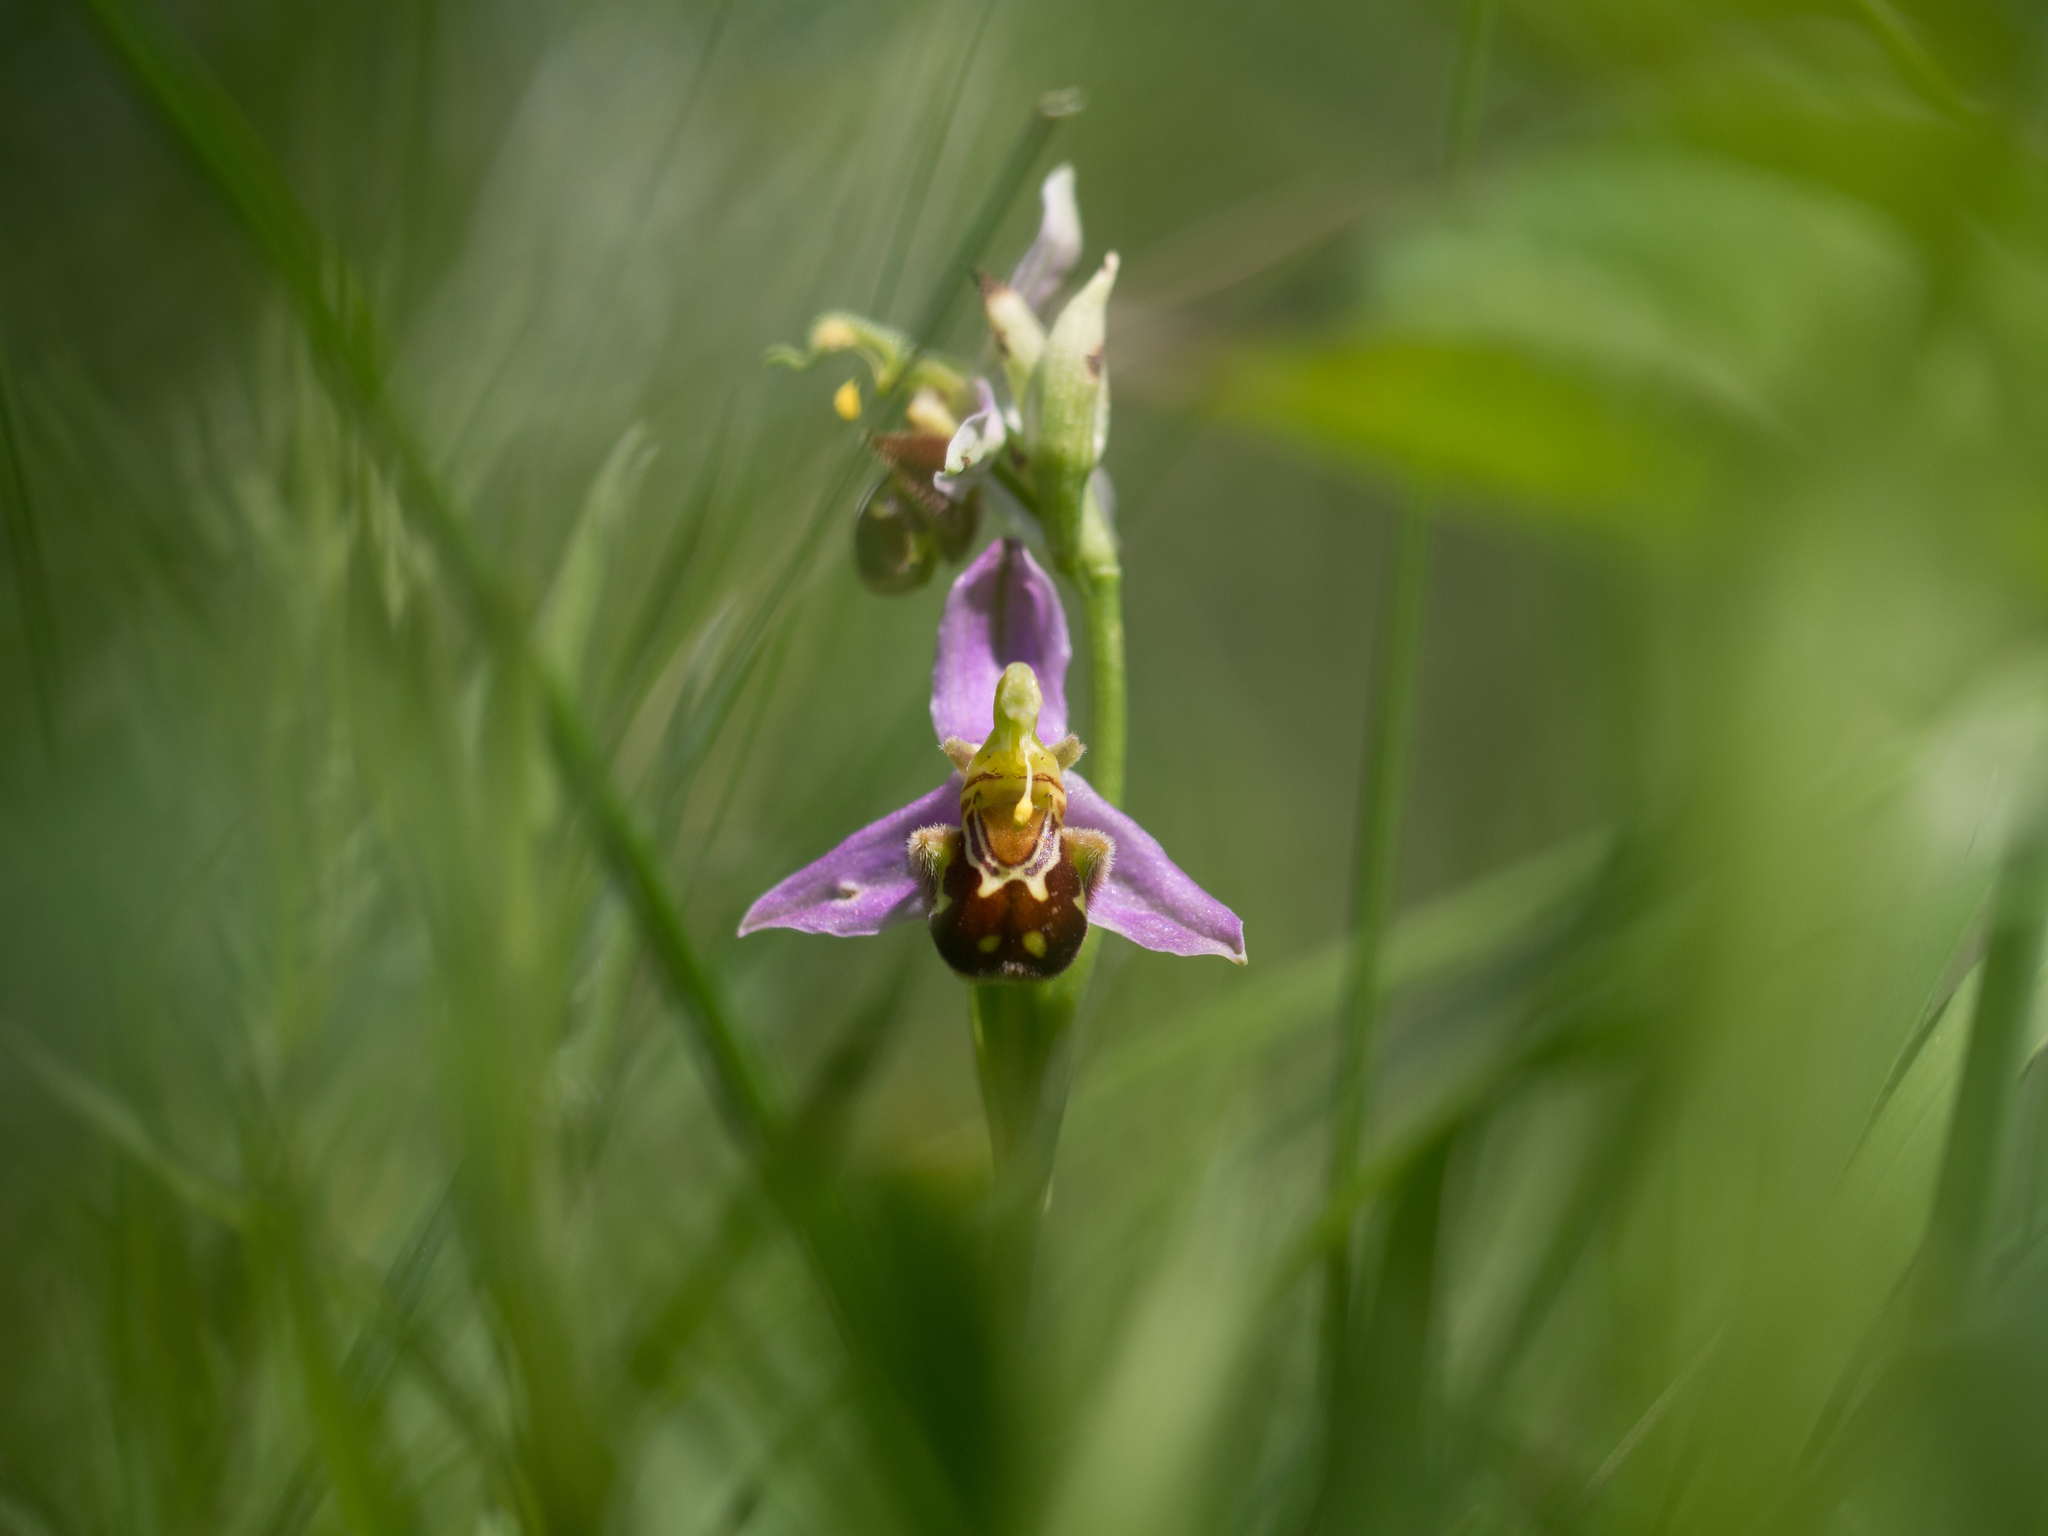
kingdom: Plantae
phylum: Tracheophyta
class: Liliopsida
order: Asparagales
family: Orchidaceae
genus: Ophrys
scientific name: Ophrys apifera
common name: Bee orchid
